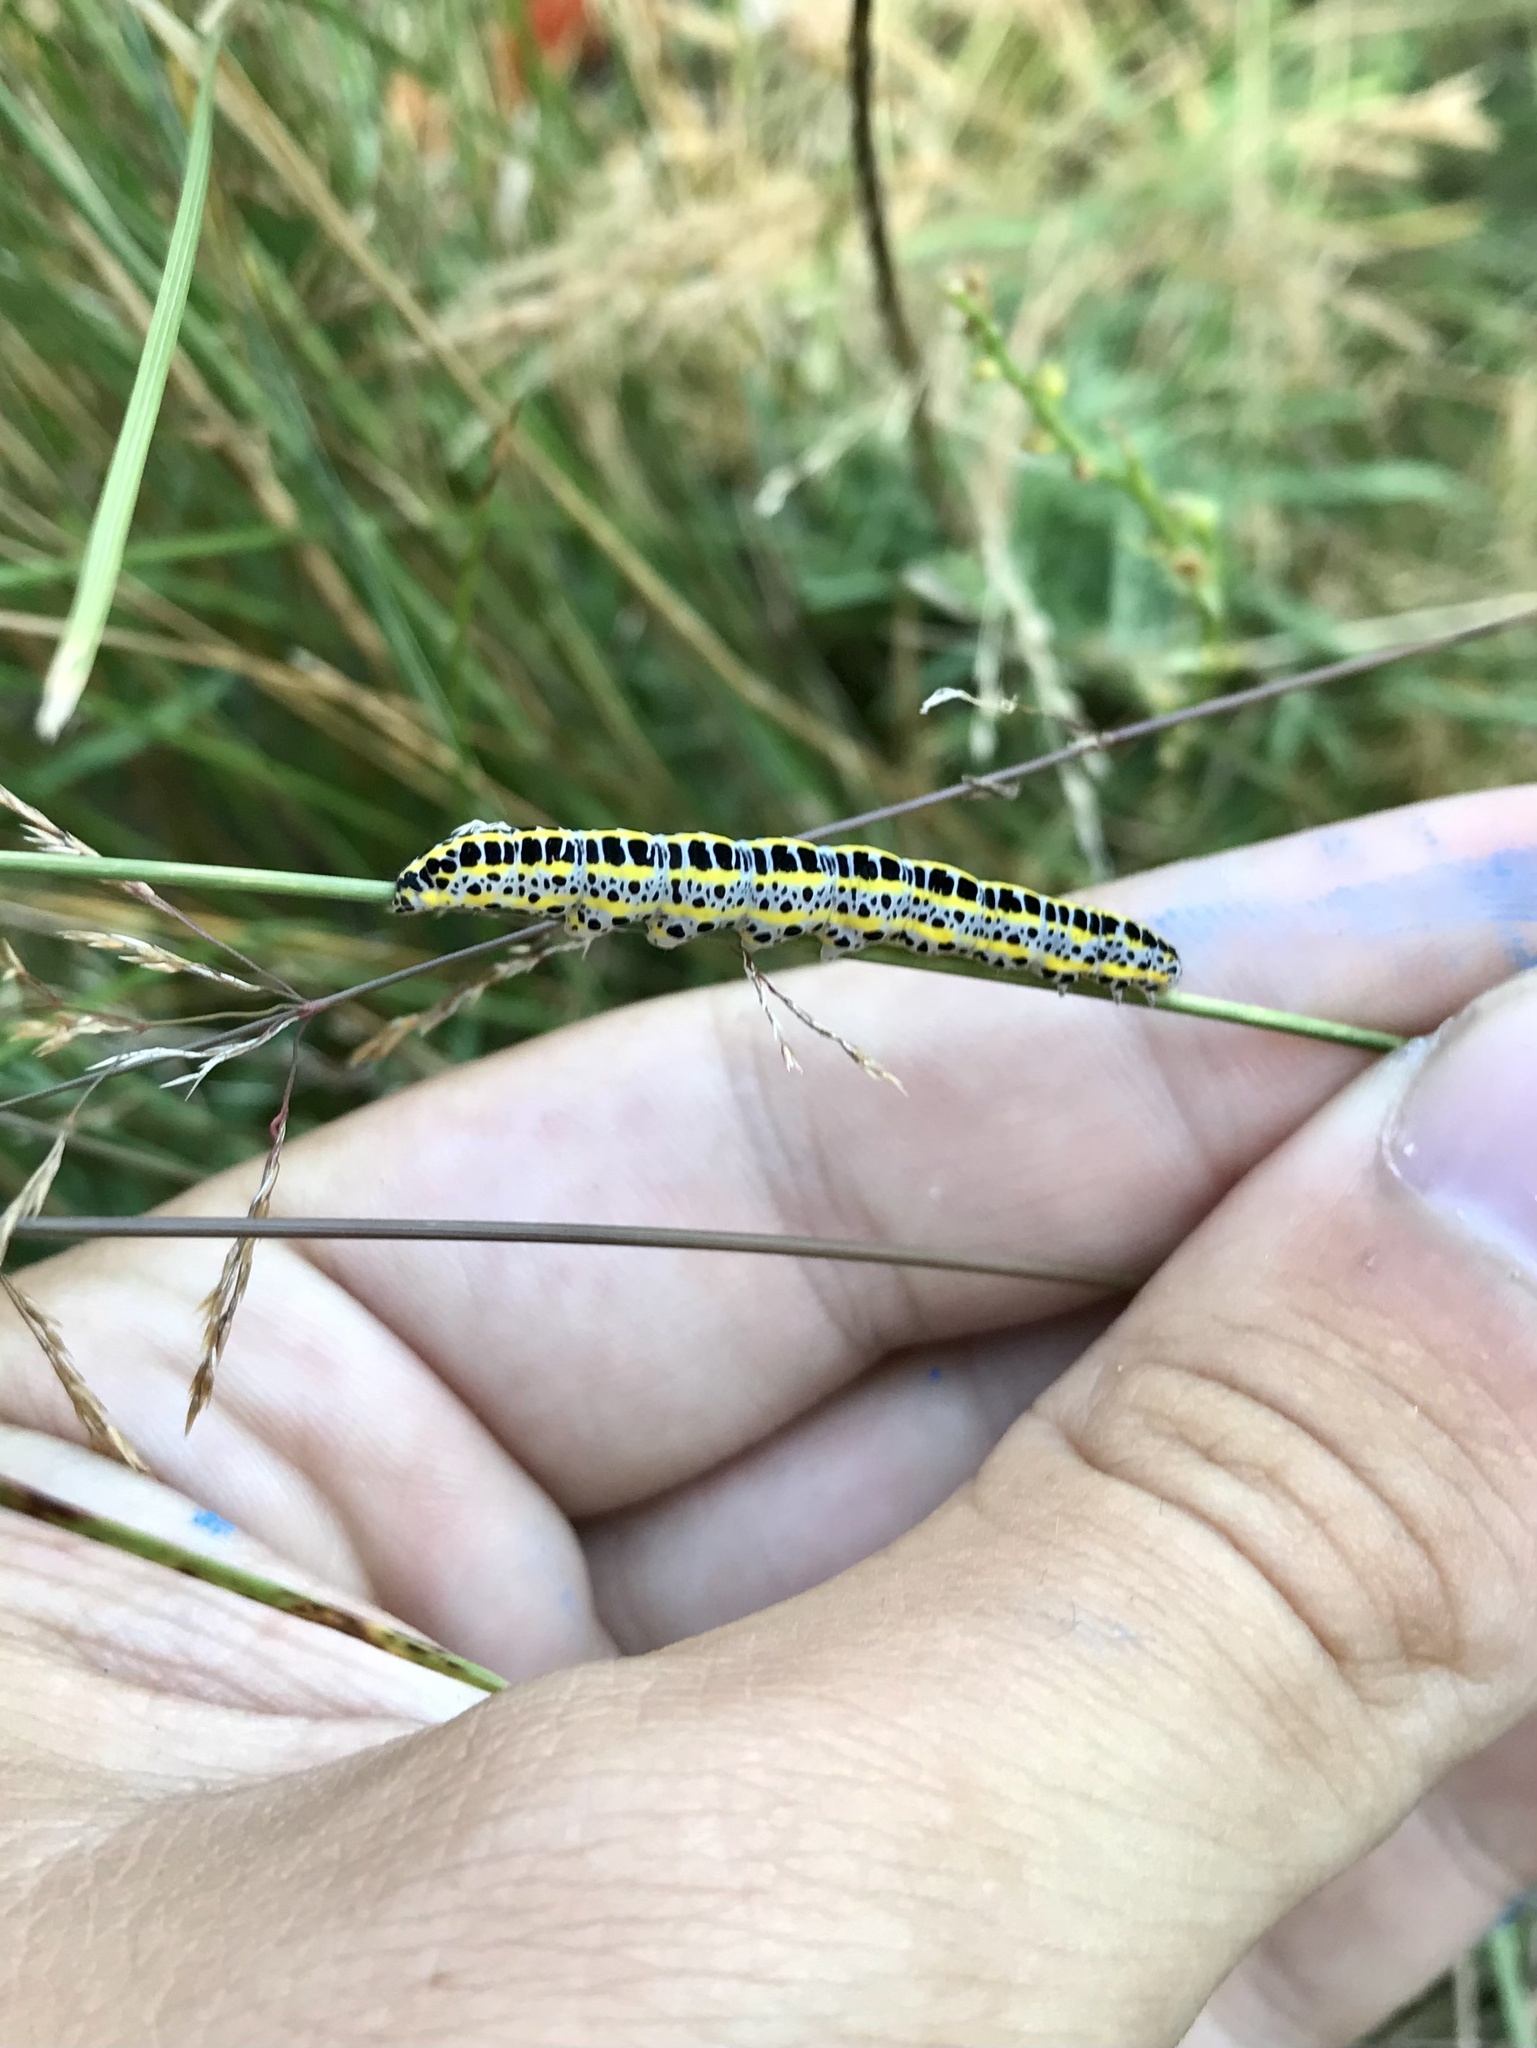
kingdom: Animalia
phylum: Arthropoda
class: Insecta
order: Lepidoptera
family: Noctuidae
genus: Calophasia
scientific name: Calophasia lunula
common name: Toadflax brocade
